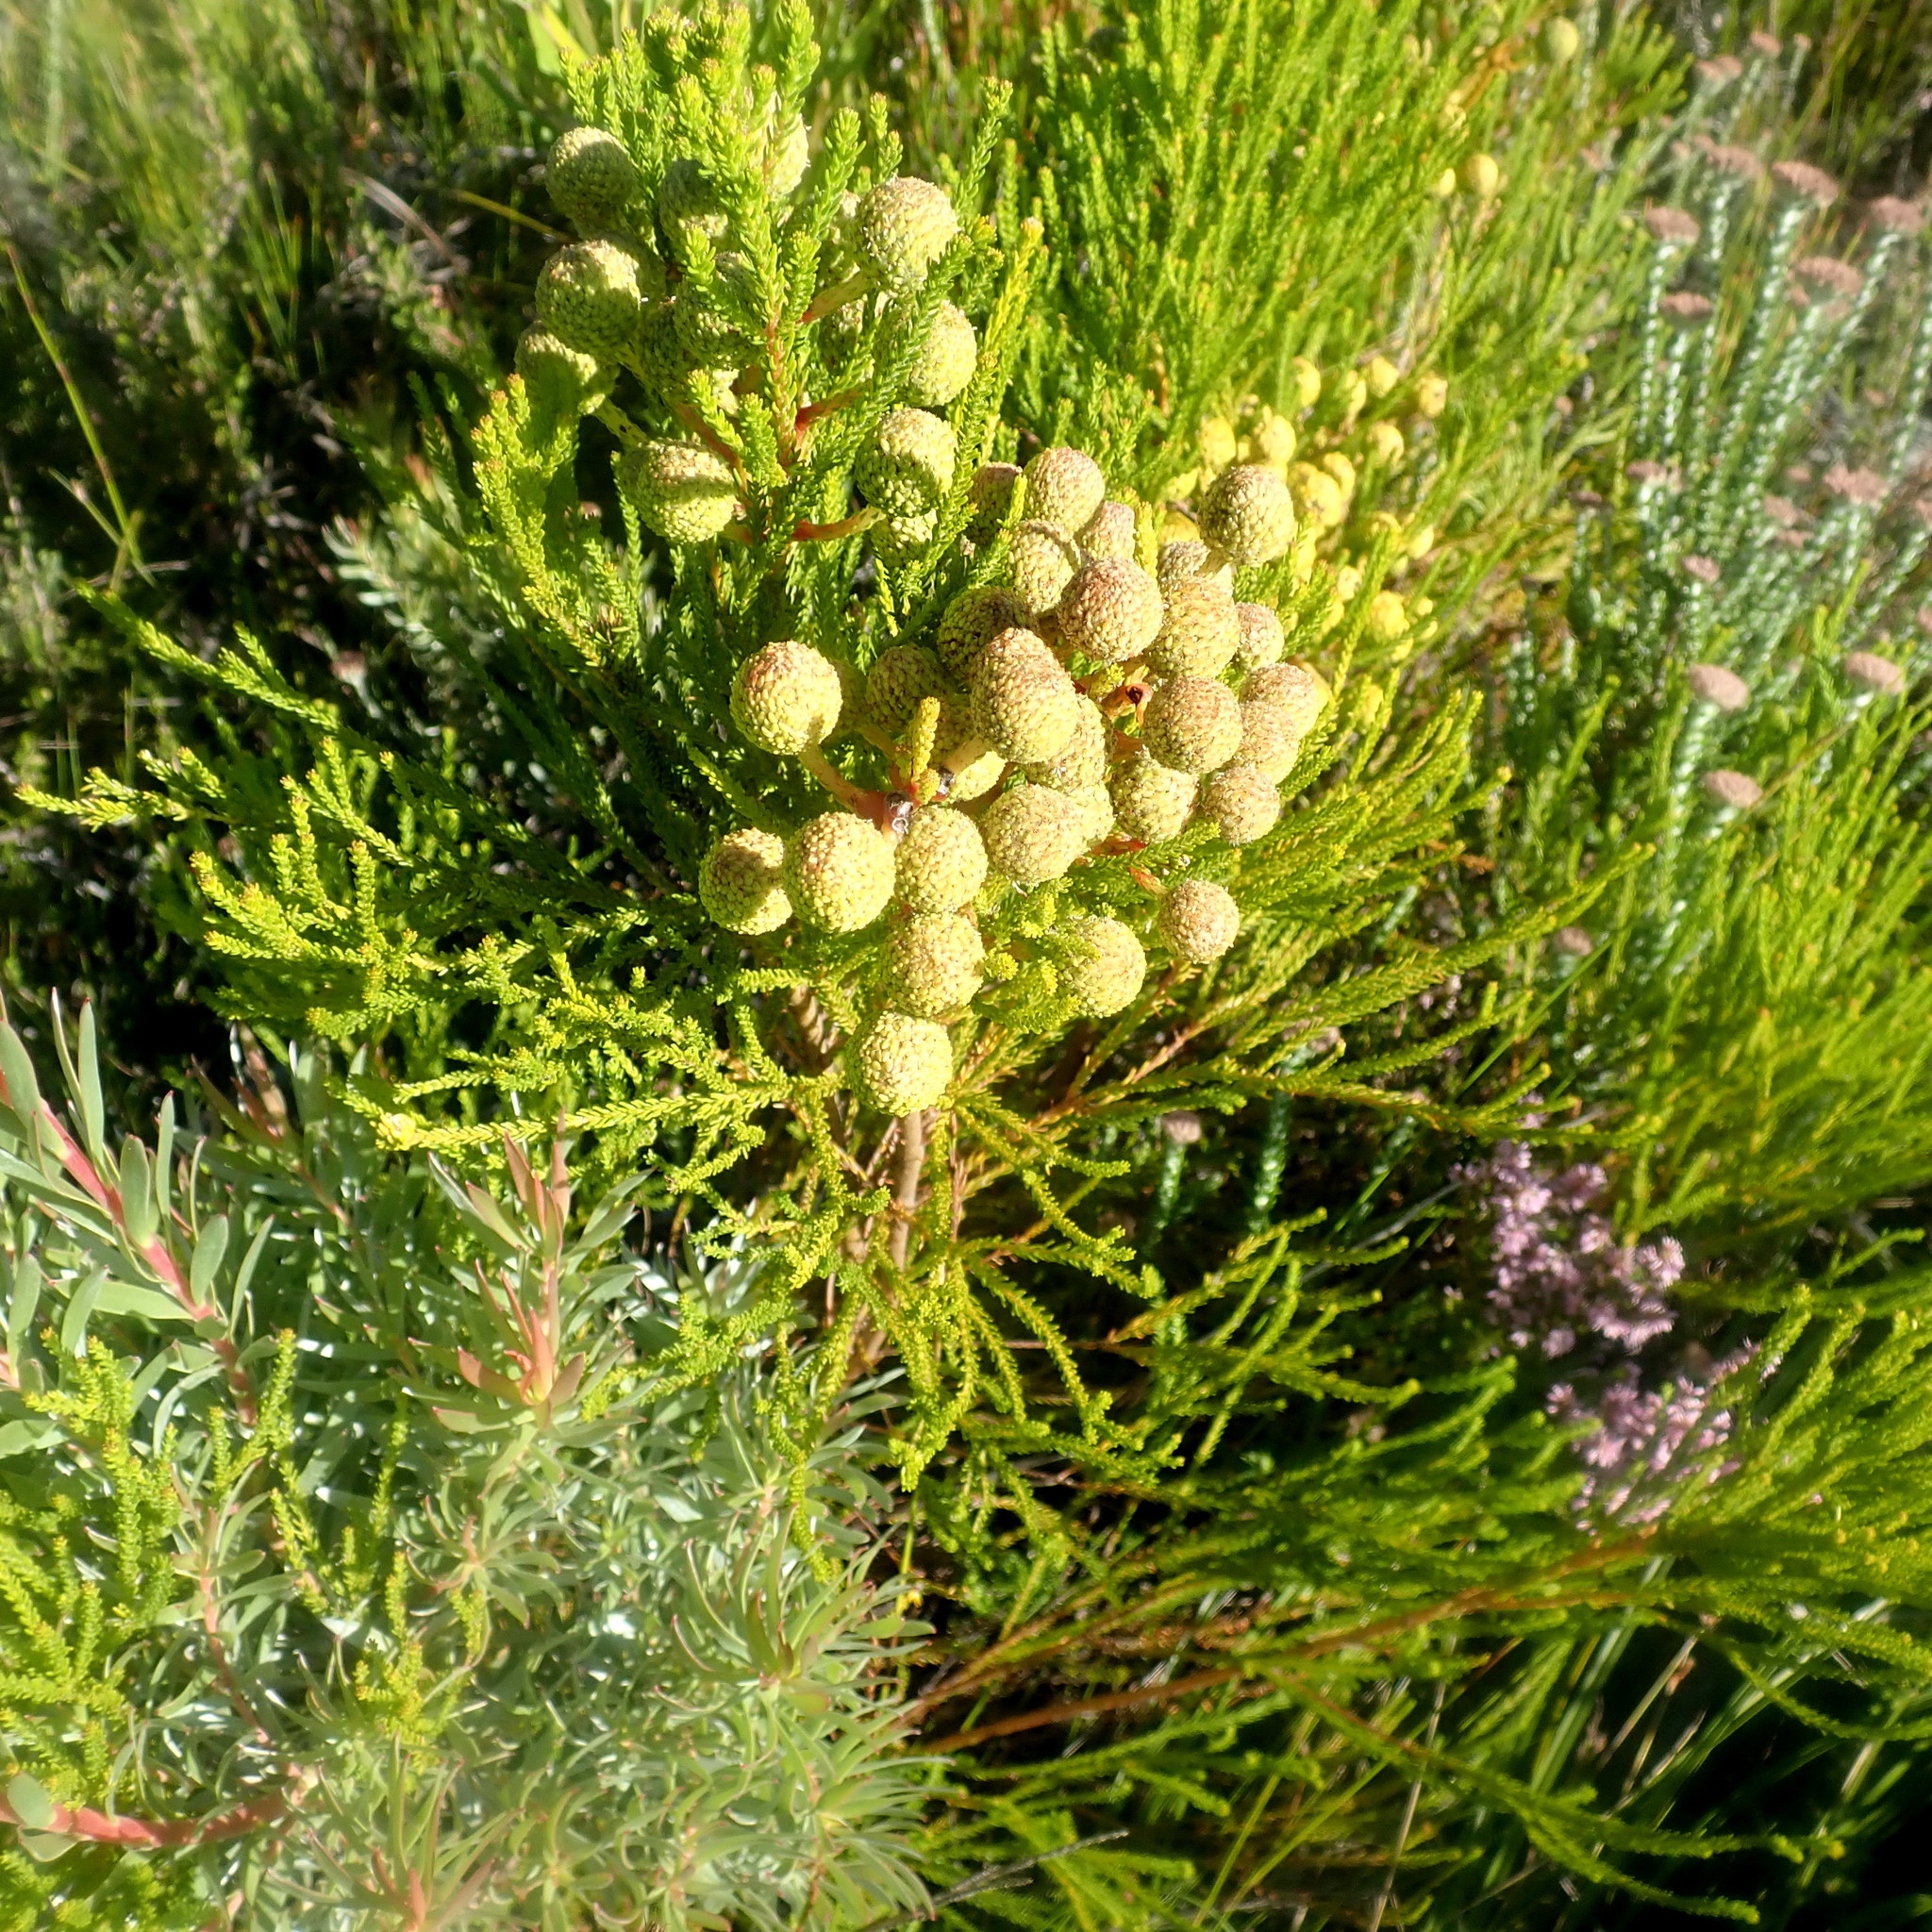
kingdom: Plantae
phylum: Tracheophyta
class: Magnoliopsida
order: Bruniales
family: Bruniaceae
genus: Berzelia
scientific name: Berzelia intermedia
